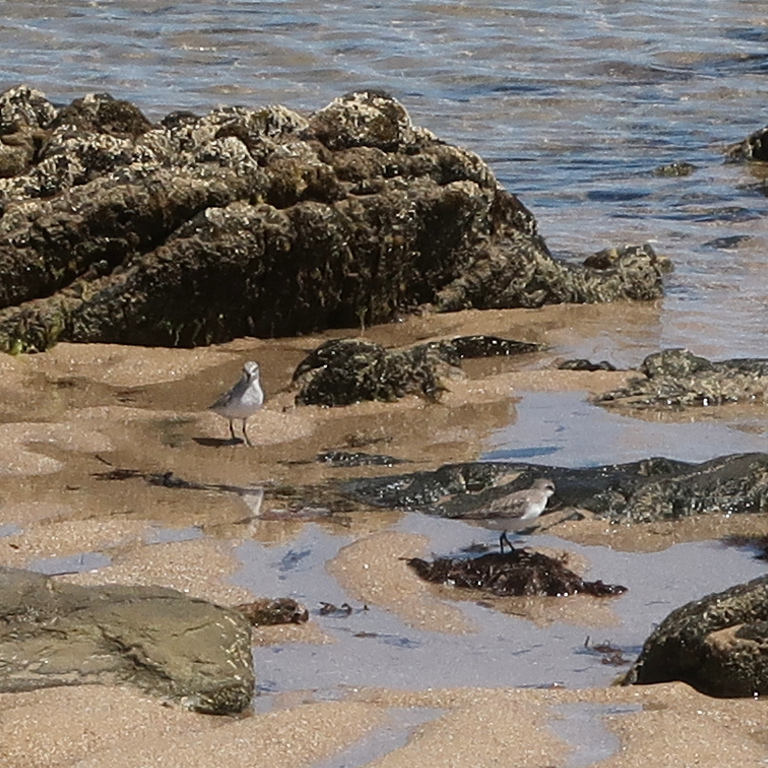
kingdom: Animalia
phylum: Chordata
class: Aves
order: Charadriiformes
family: Scolopacidae
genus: Calidris
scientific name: Calidris ruficollis
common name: Red-necked stint
